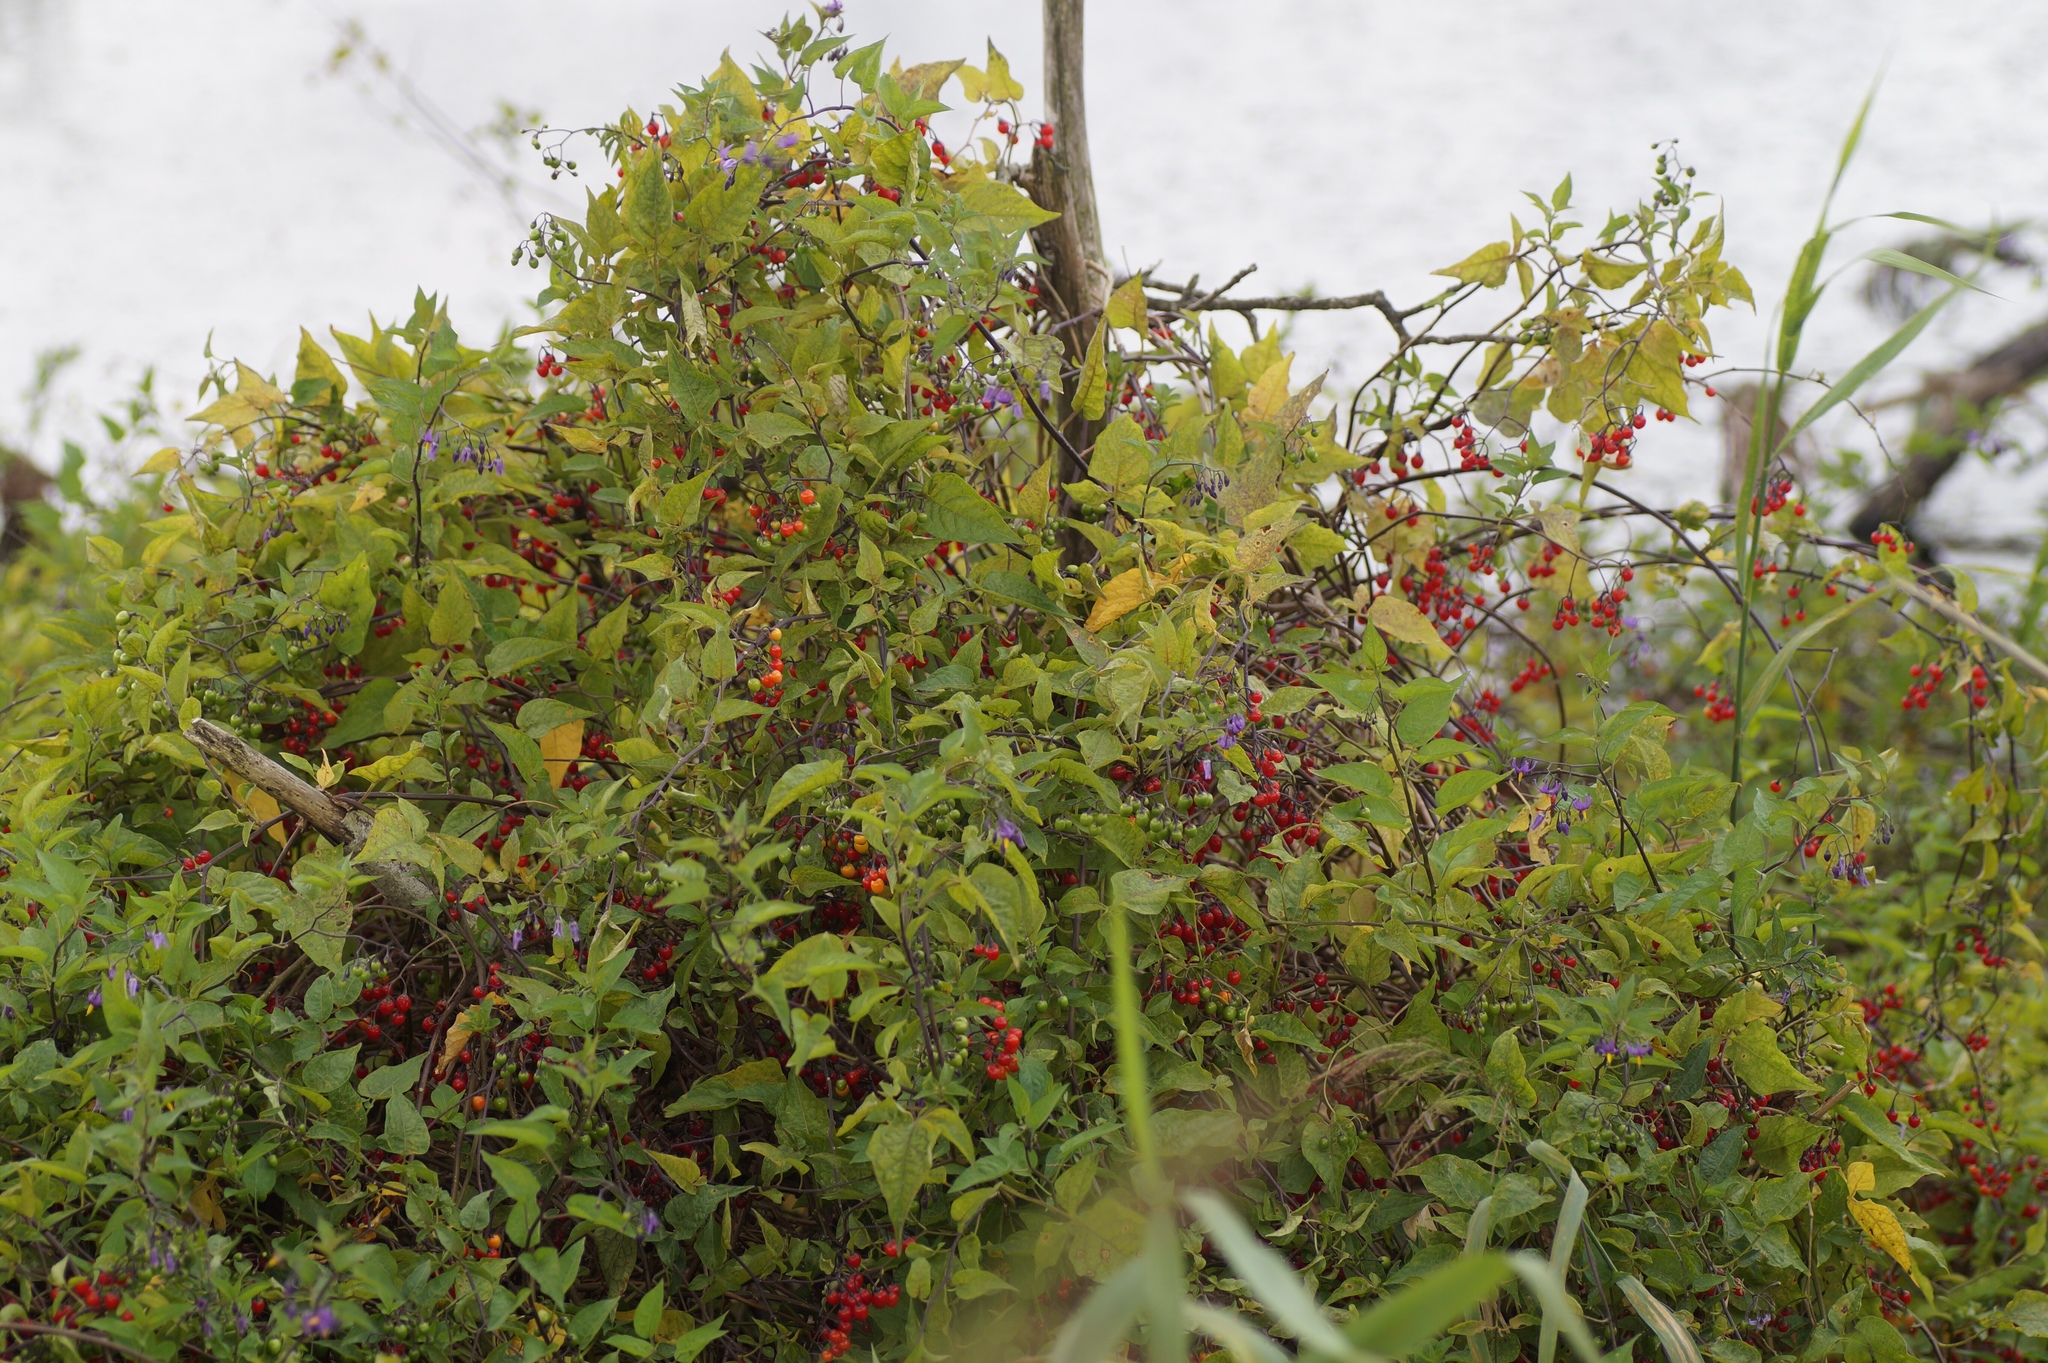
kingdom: Plantae
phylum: Tracheophyta
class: Magnoliopsida
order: Solanales
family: Solanaceae
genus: Solanum
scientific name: Solanum dulcamara
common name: Climbing nightshade
